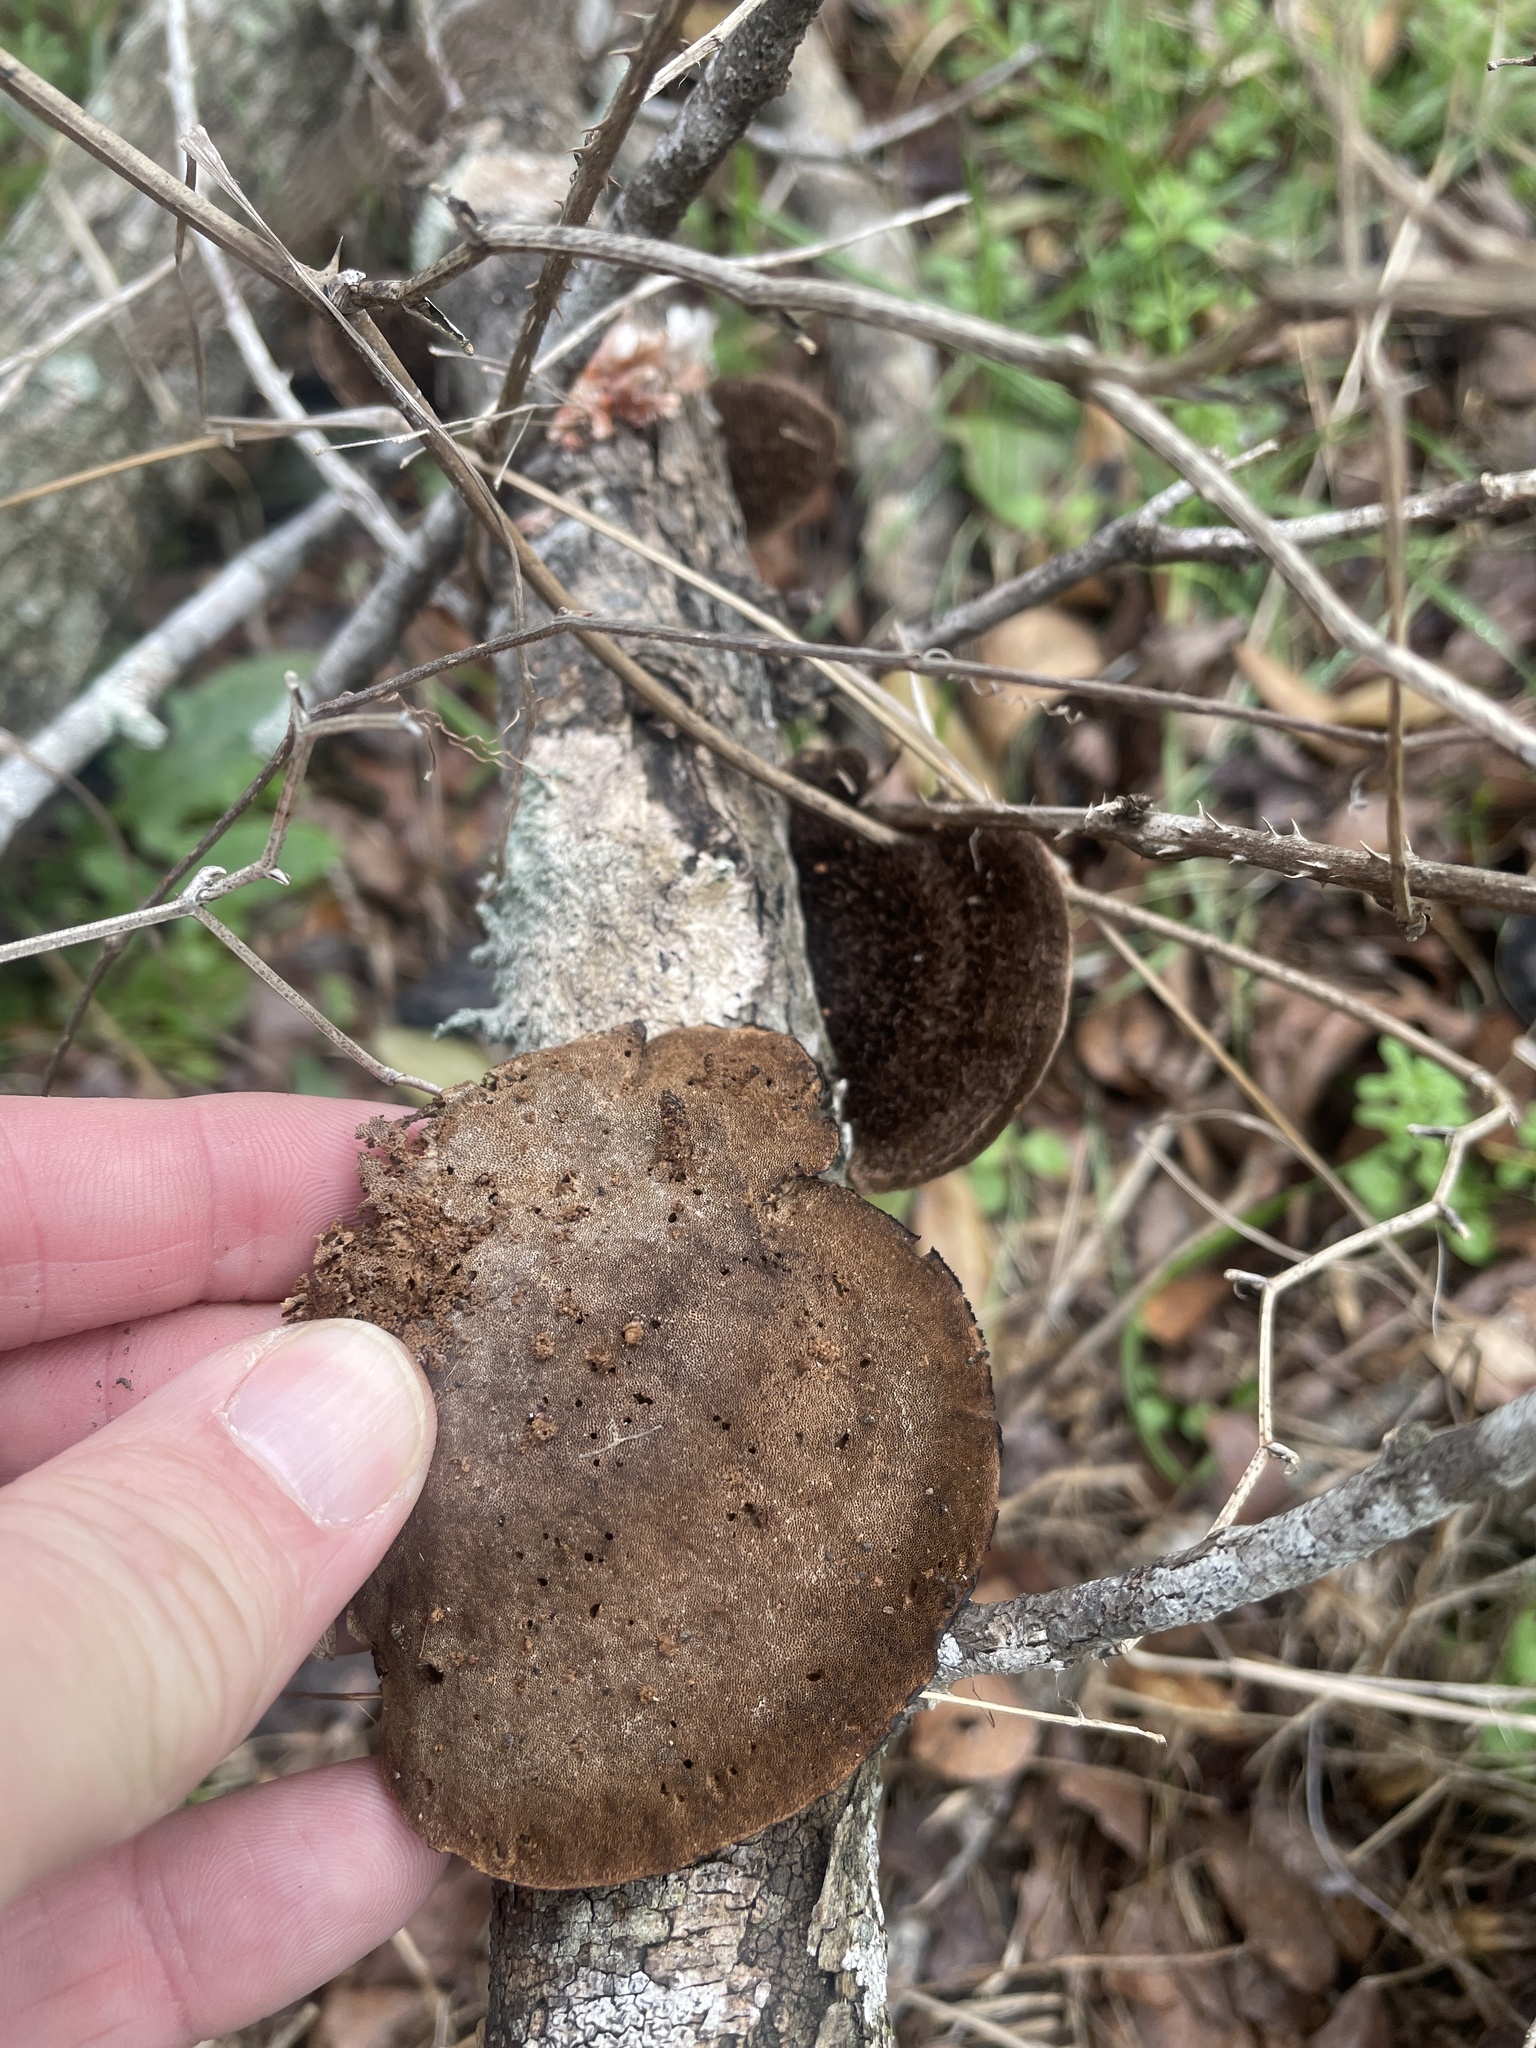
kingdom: Fungi
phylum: Basidiomycota
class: Agaricomycetes
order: Polyporales
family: Cerrenaceae
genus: Cerrena
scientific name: Cerrena hydnoides
